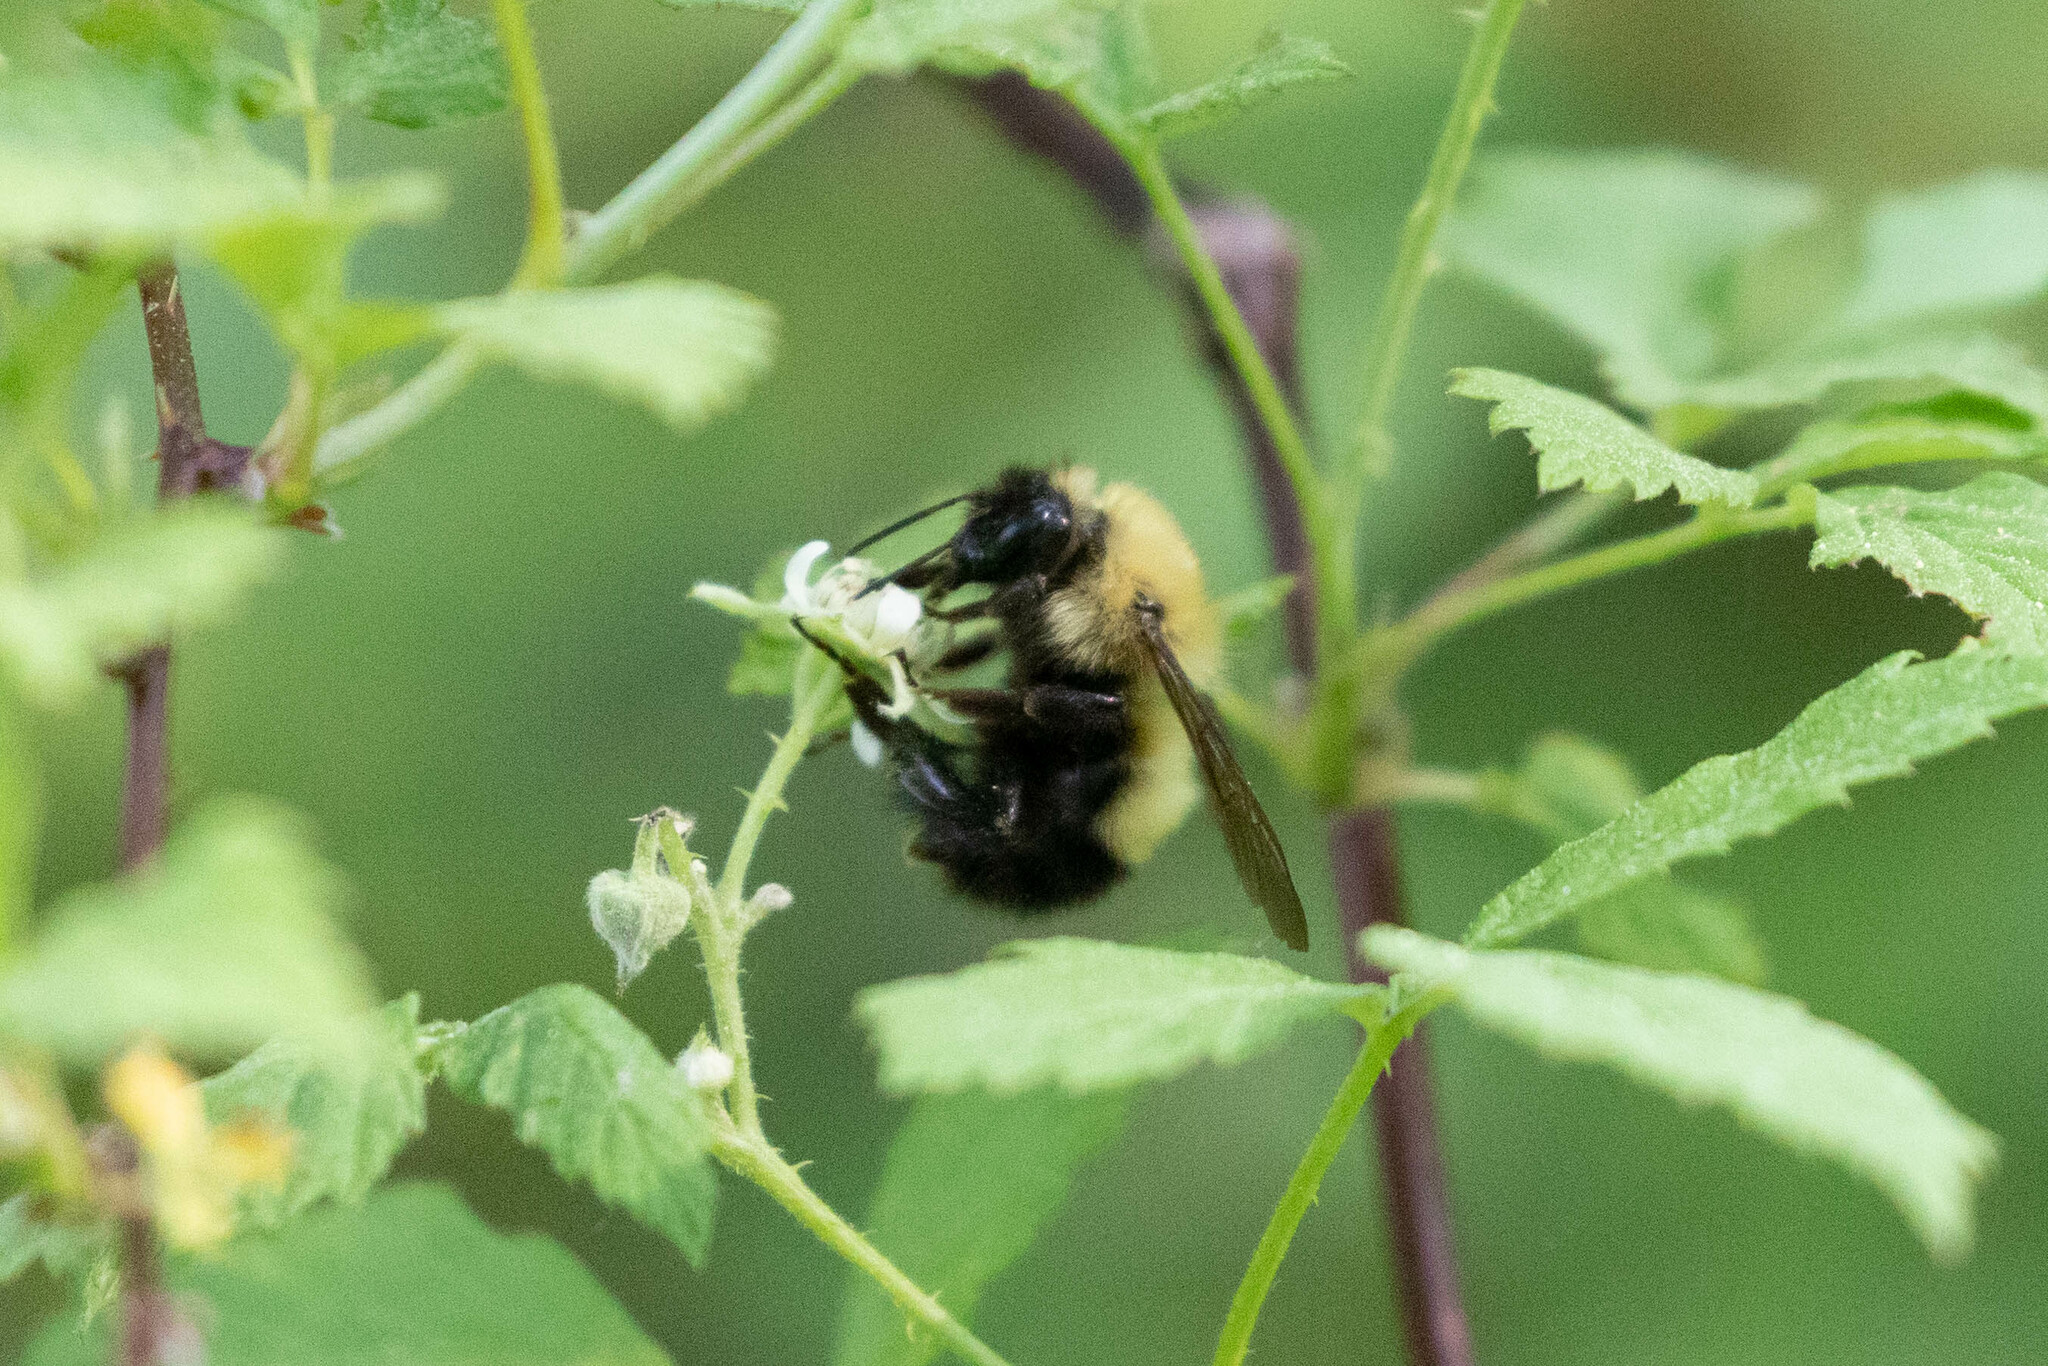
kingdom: Animalia
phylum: Arthropoda
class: Insecta
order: Hymenoptera
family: Apidae
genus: Bombus
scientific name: Bombus perplexus
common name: Confusing bumble bee
